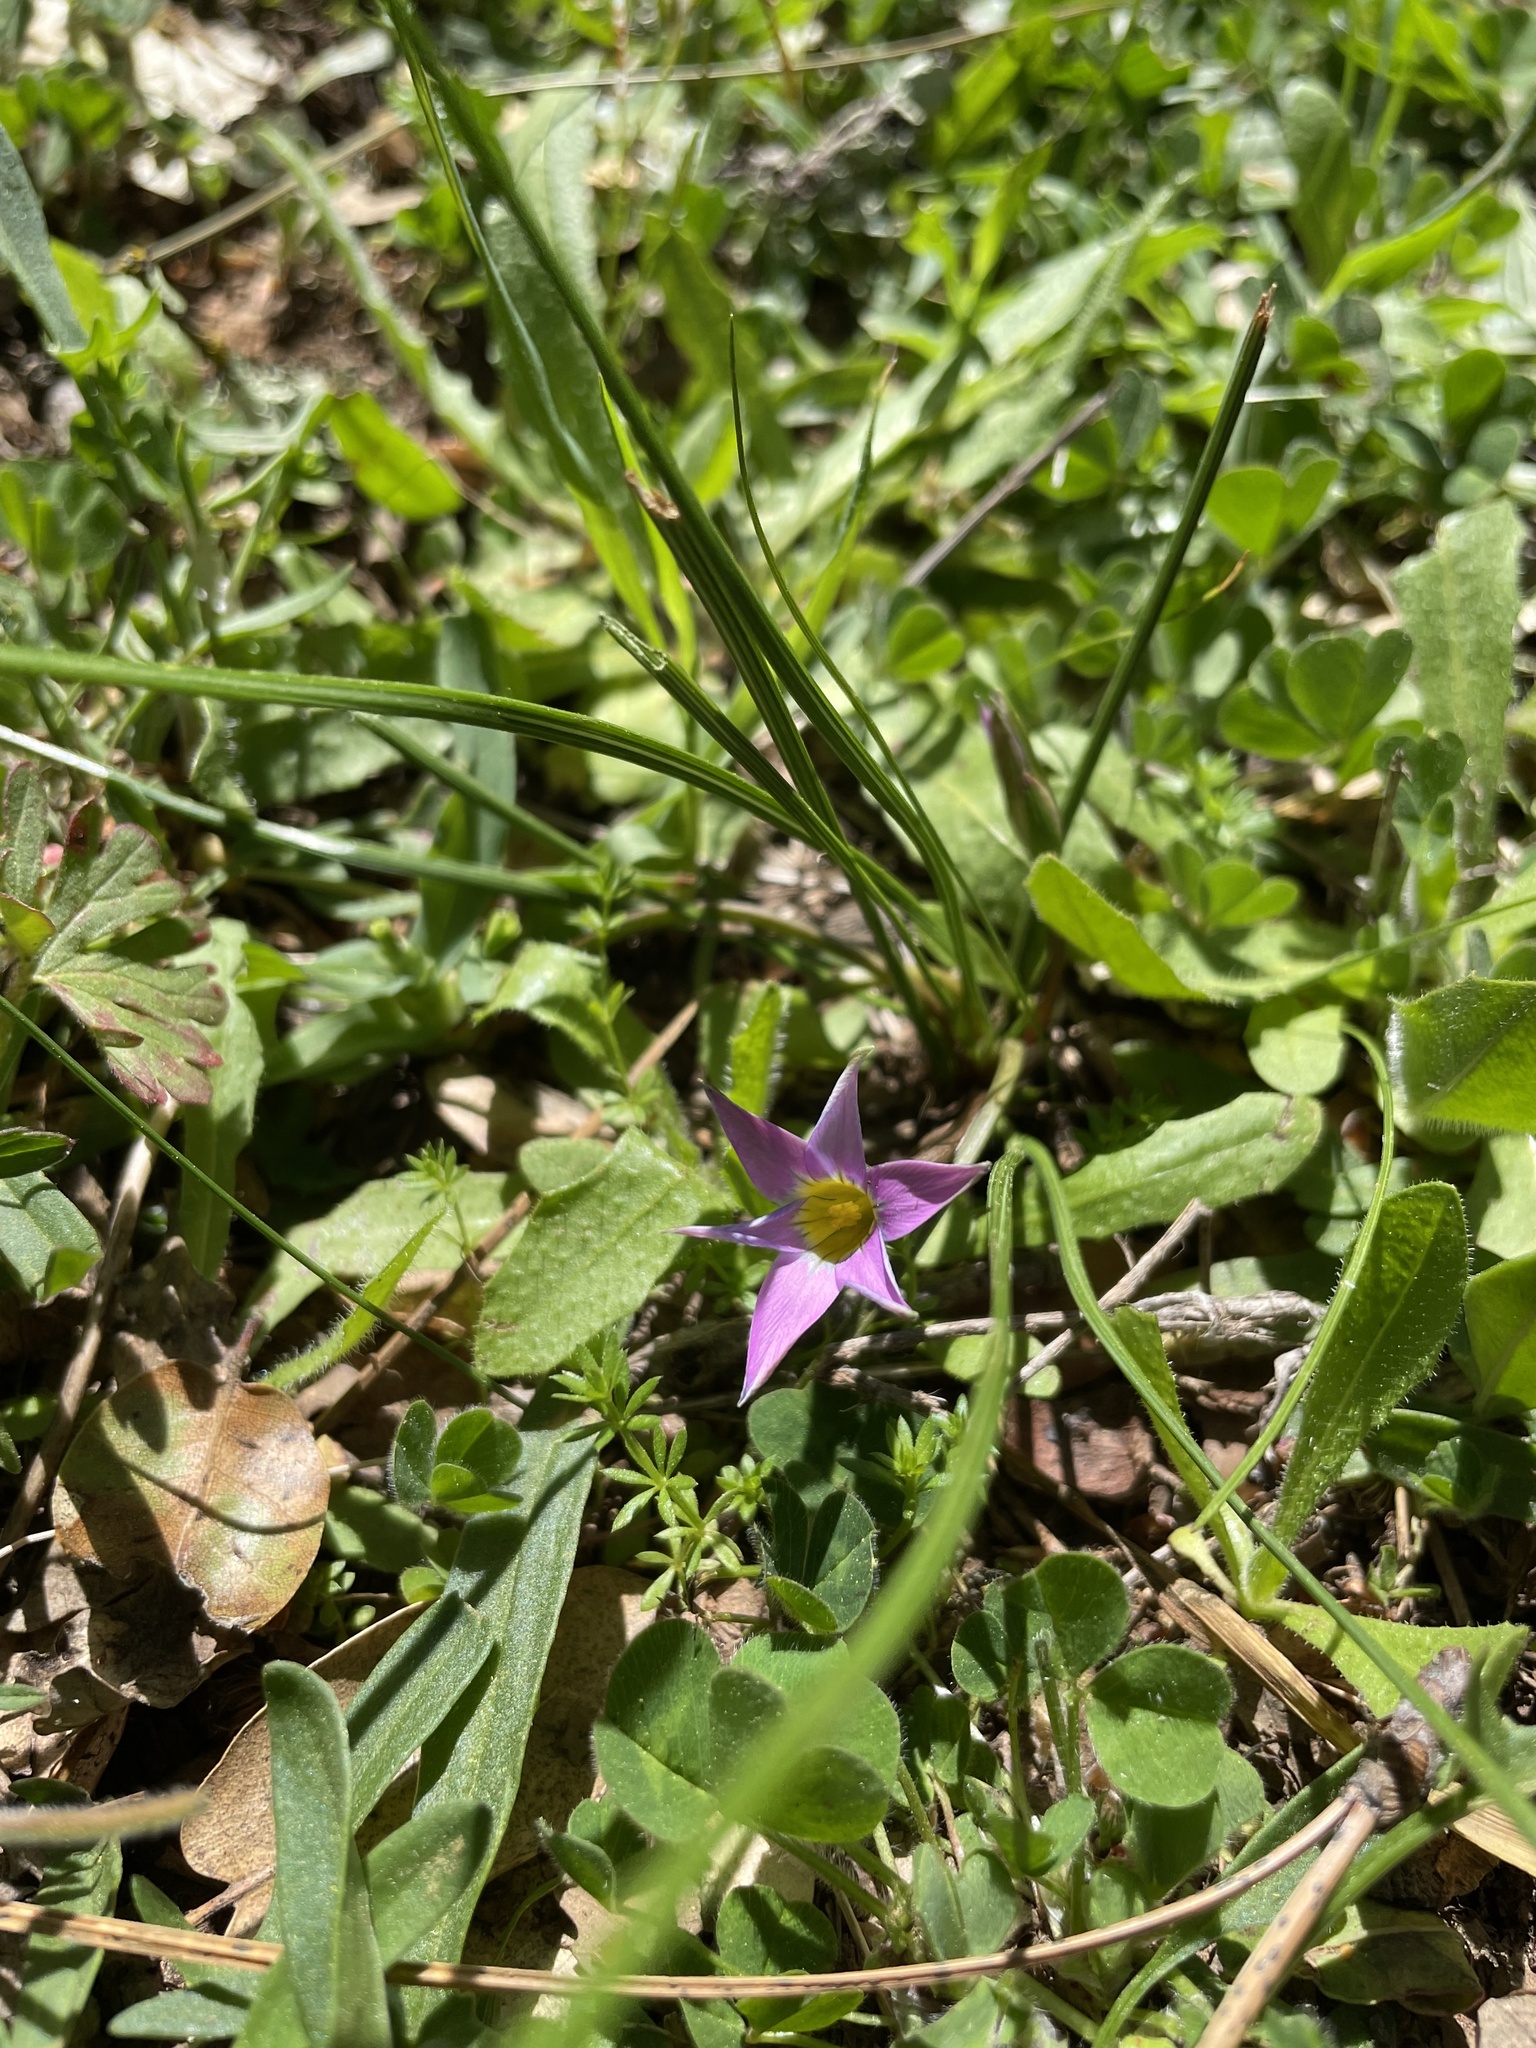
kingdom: Plantae
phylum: Tracheophyta
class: Liliopsida
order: Asparagales
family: Iridaceae
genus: Romulea
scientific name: Romulea rosea
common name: Oniongrass
